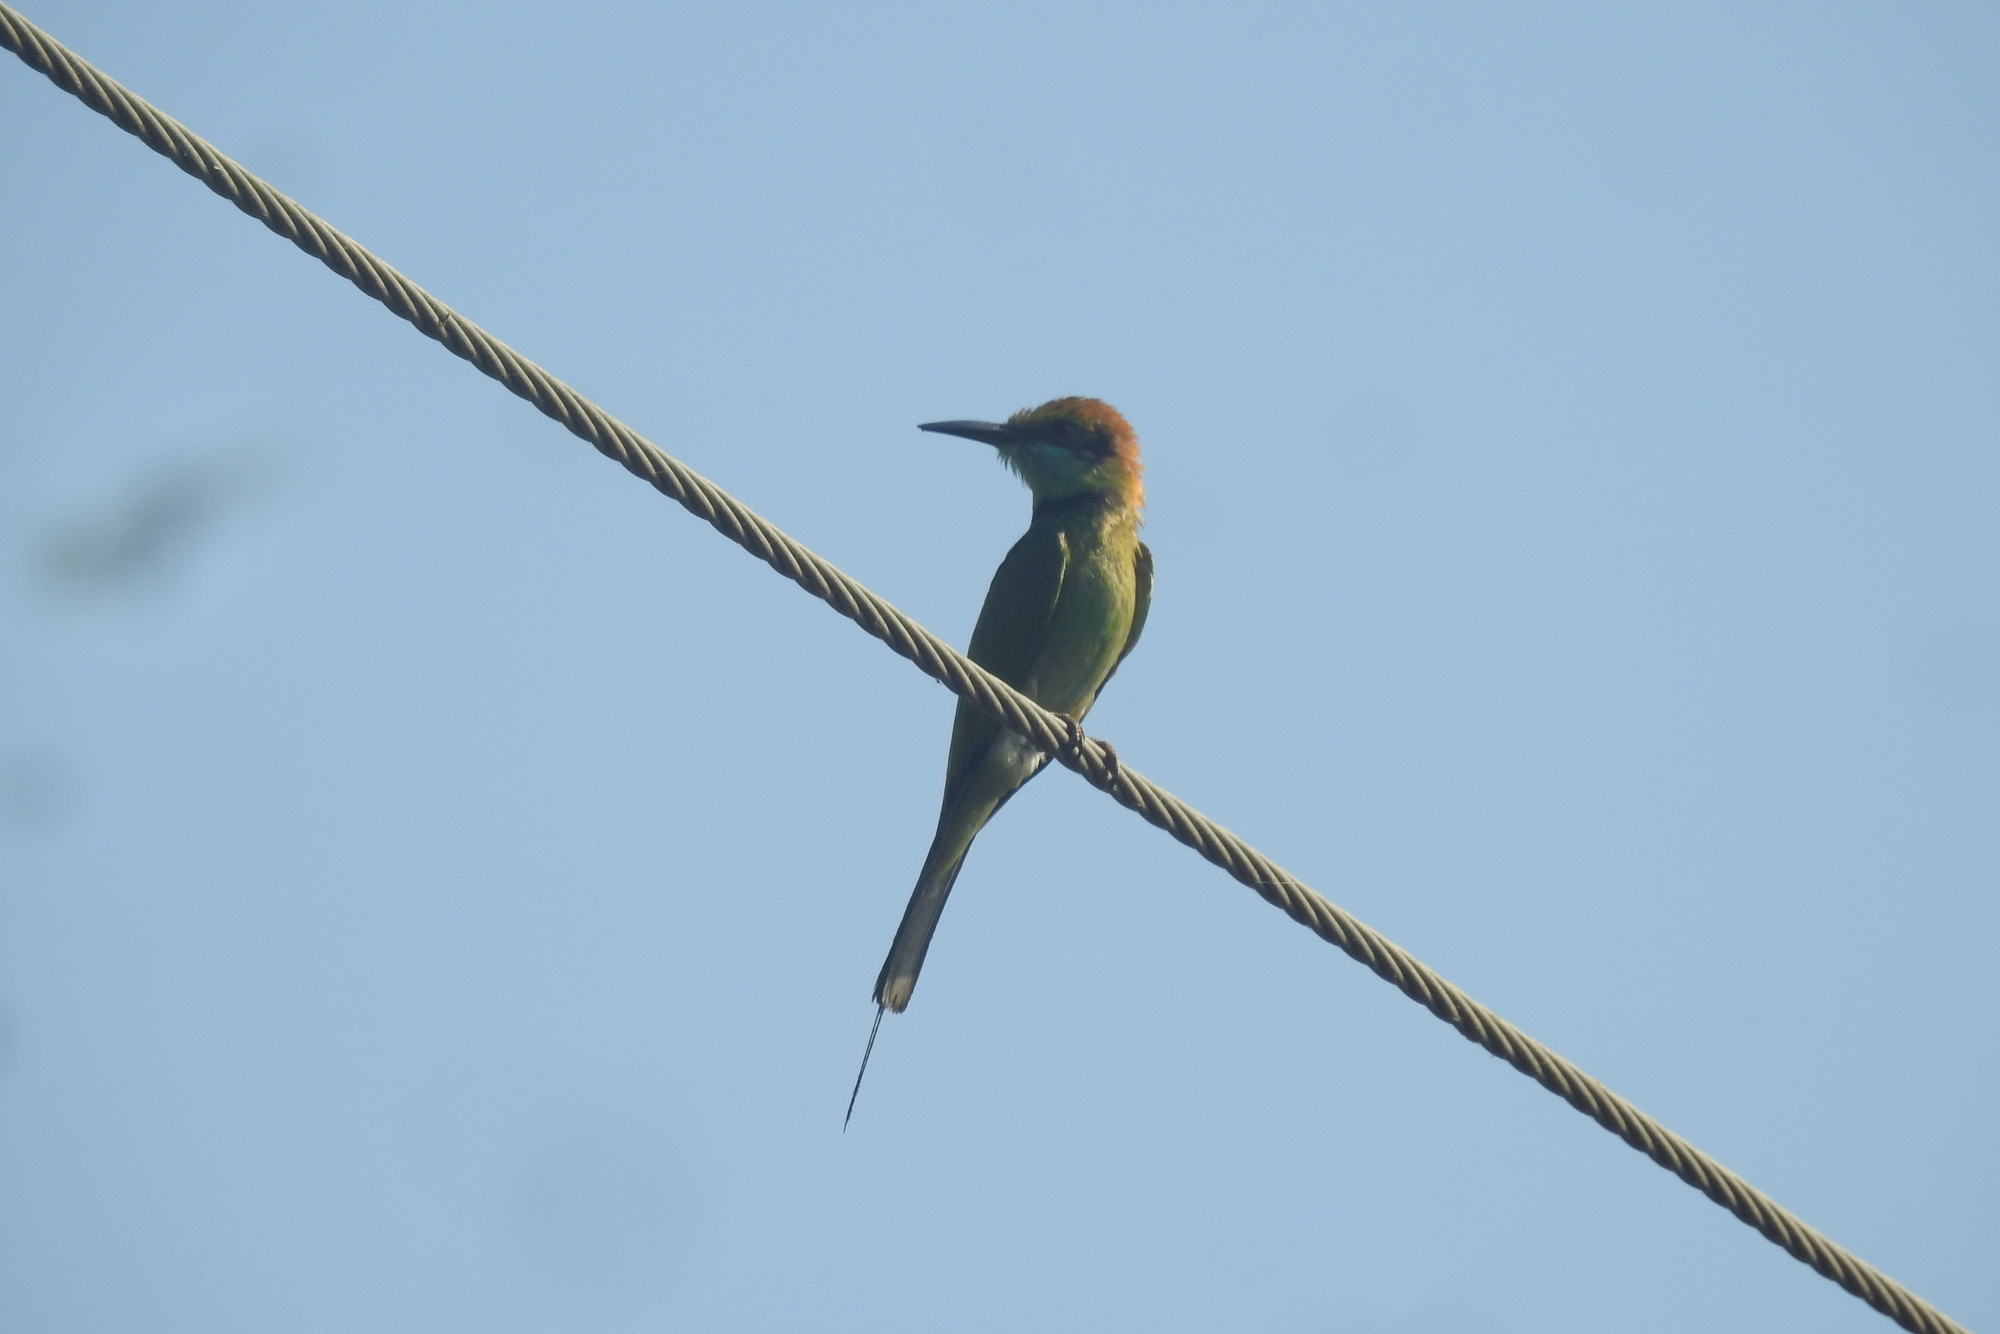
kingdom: Animalia
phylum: Chordata
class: Aves
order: Coraciiformes
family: Meropidae
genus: Merops
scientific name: Merops orientalis
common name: Green bee-eater
